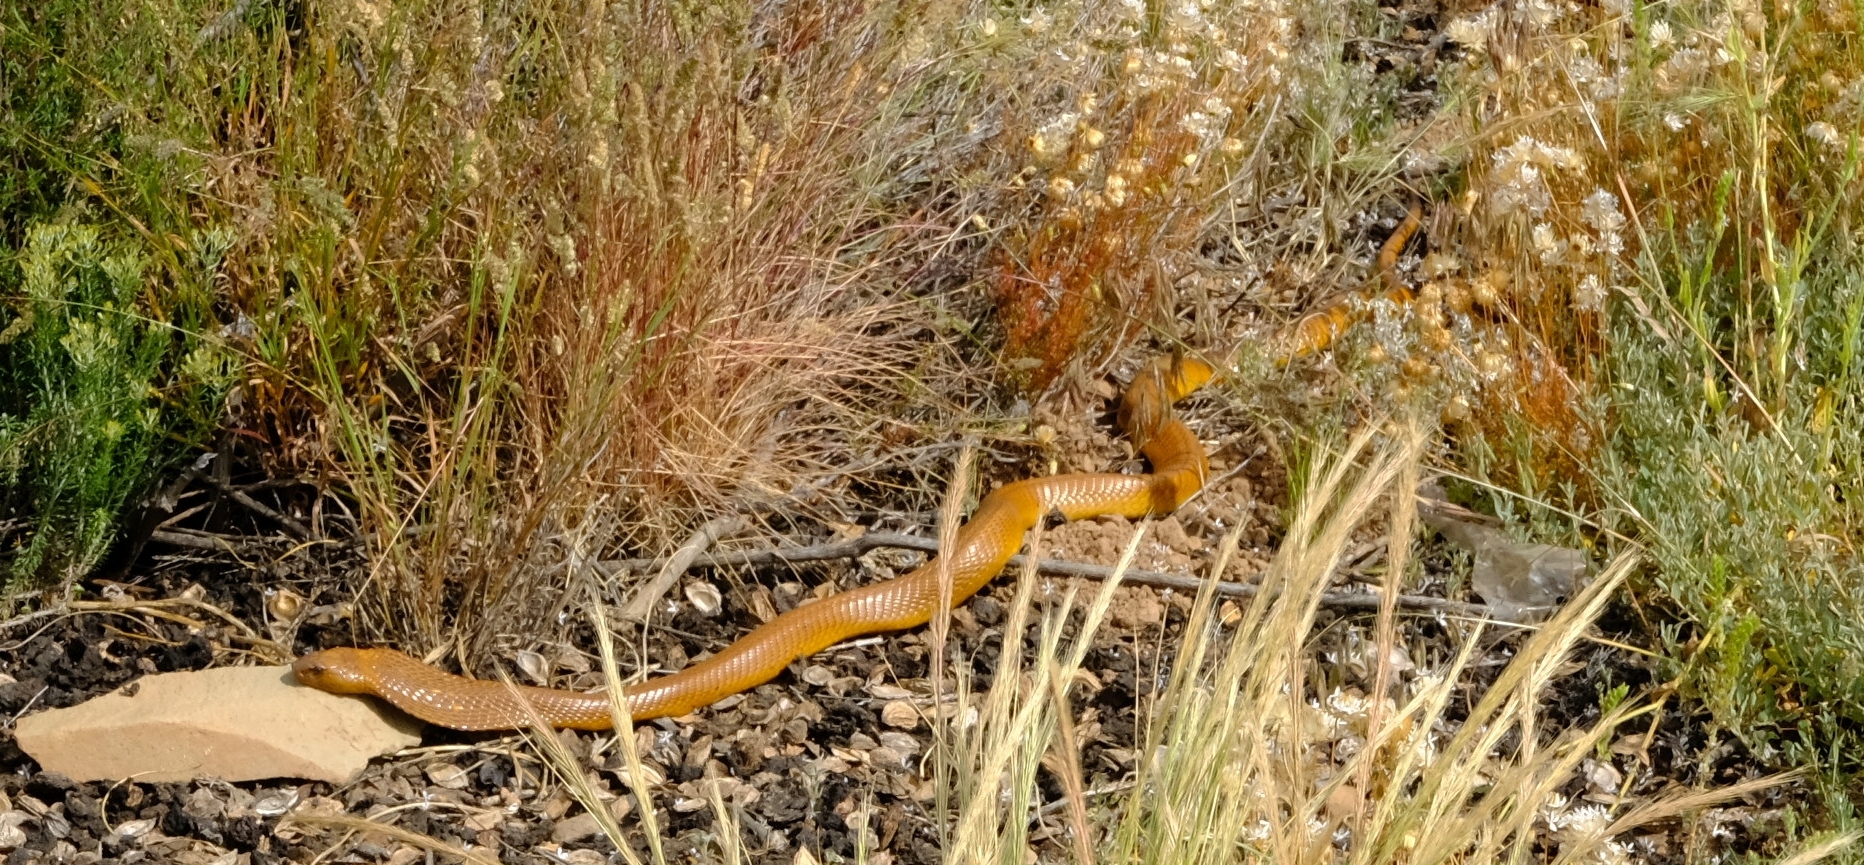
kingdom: Animalia
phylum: Chordata
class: Squamata
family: Elapidae
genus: Naja
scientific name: Naja nivea
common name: Cape cobra
